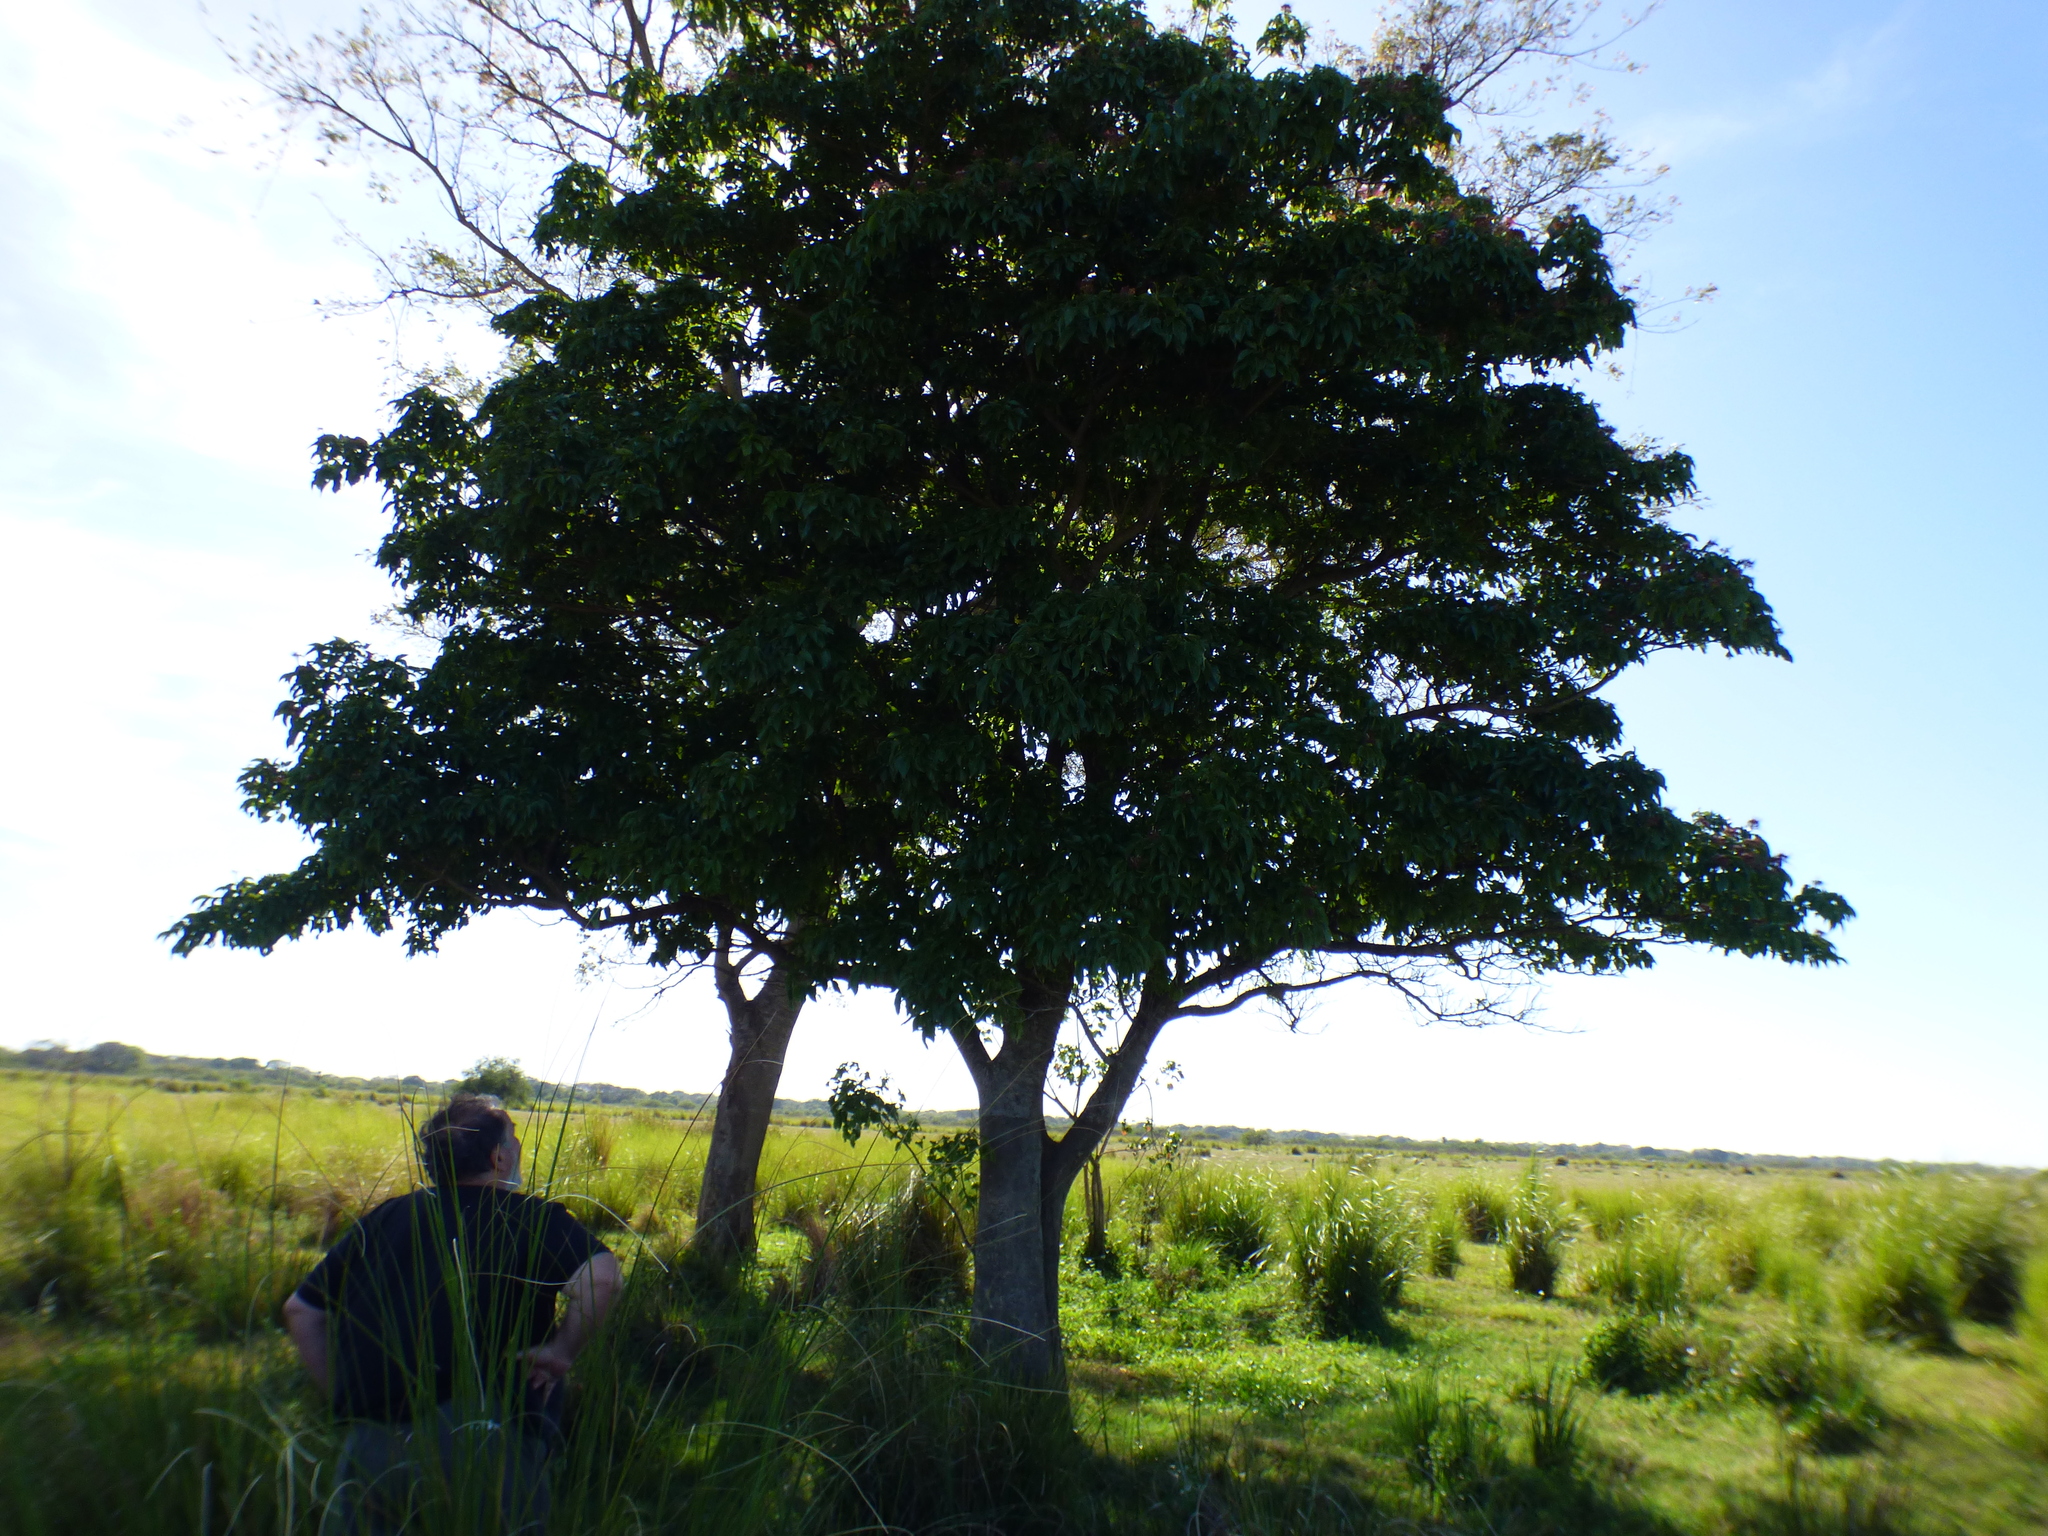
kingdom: Plantae
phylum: Tracheophyta
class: Magnoliopsida
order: Brassicales
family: Capparaceae
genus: Crateva
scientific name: Crateva tapia
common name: Garlic-pear
